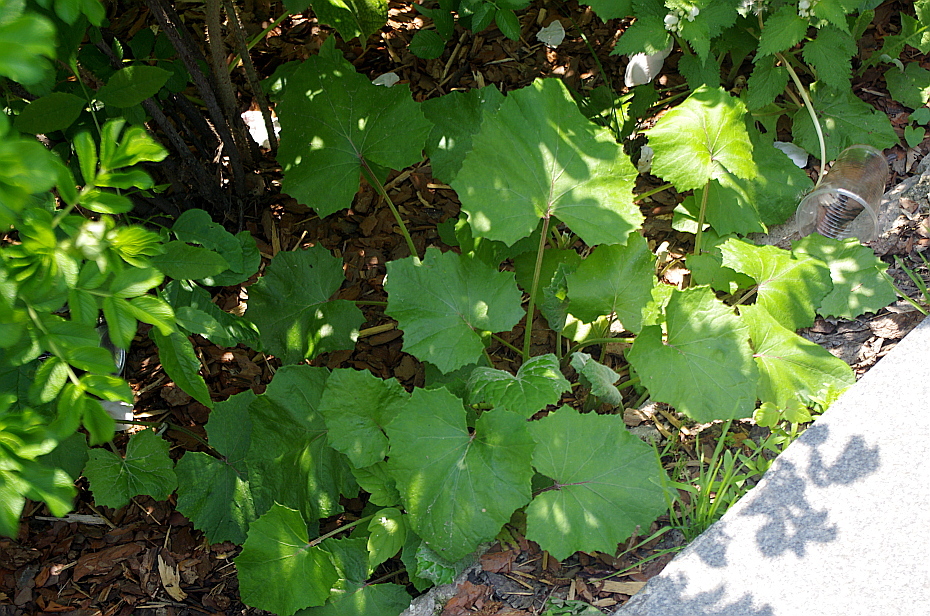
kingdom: Plantae
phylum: Tracheophyta
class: Magnoliopsida
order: Asterales
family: Asteraceae
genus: Tussilago
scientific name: Tussilago farfara
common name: Coltsfoot
